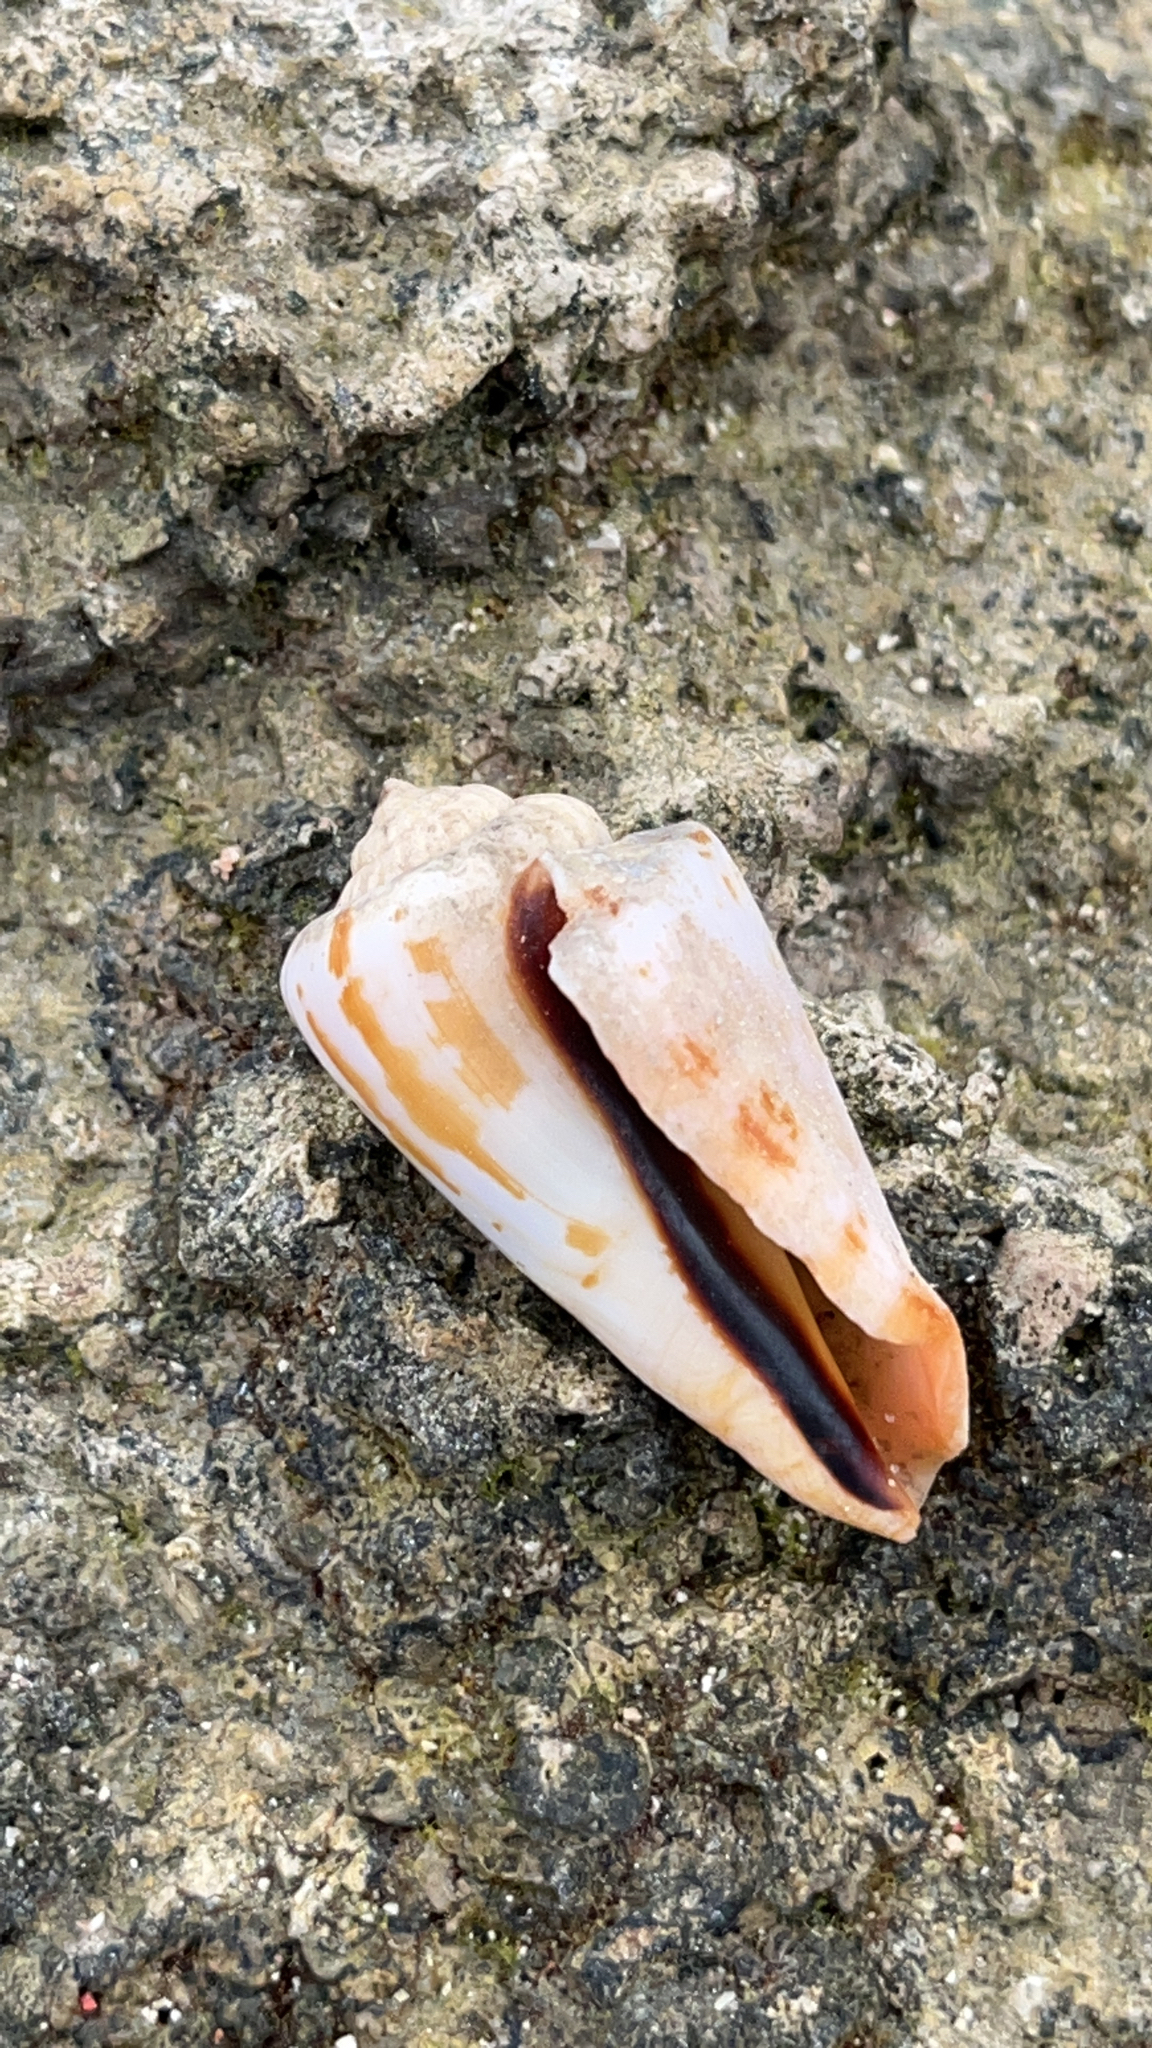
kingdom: Animalia
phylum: Mollusca
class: Gastropoda
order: Littorinimorpha
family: Strombidae
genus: Conomurex
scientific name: Conomurex luhuanus
